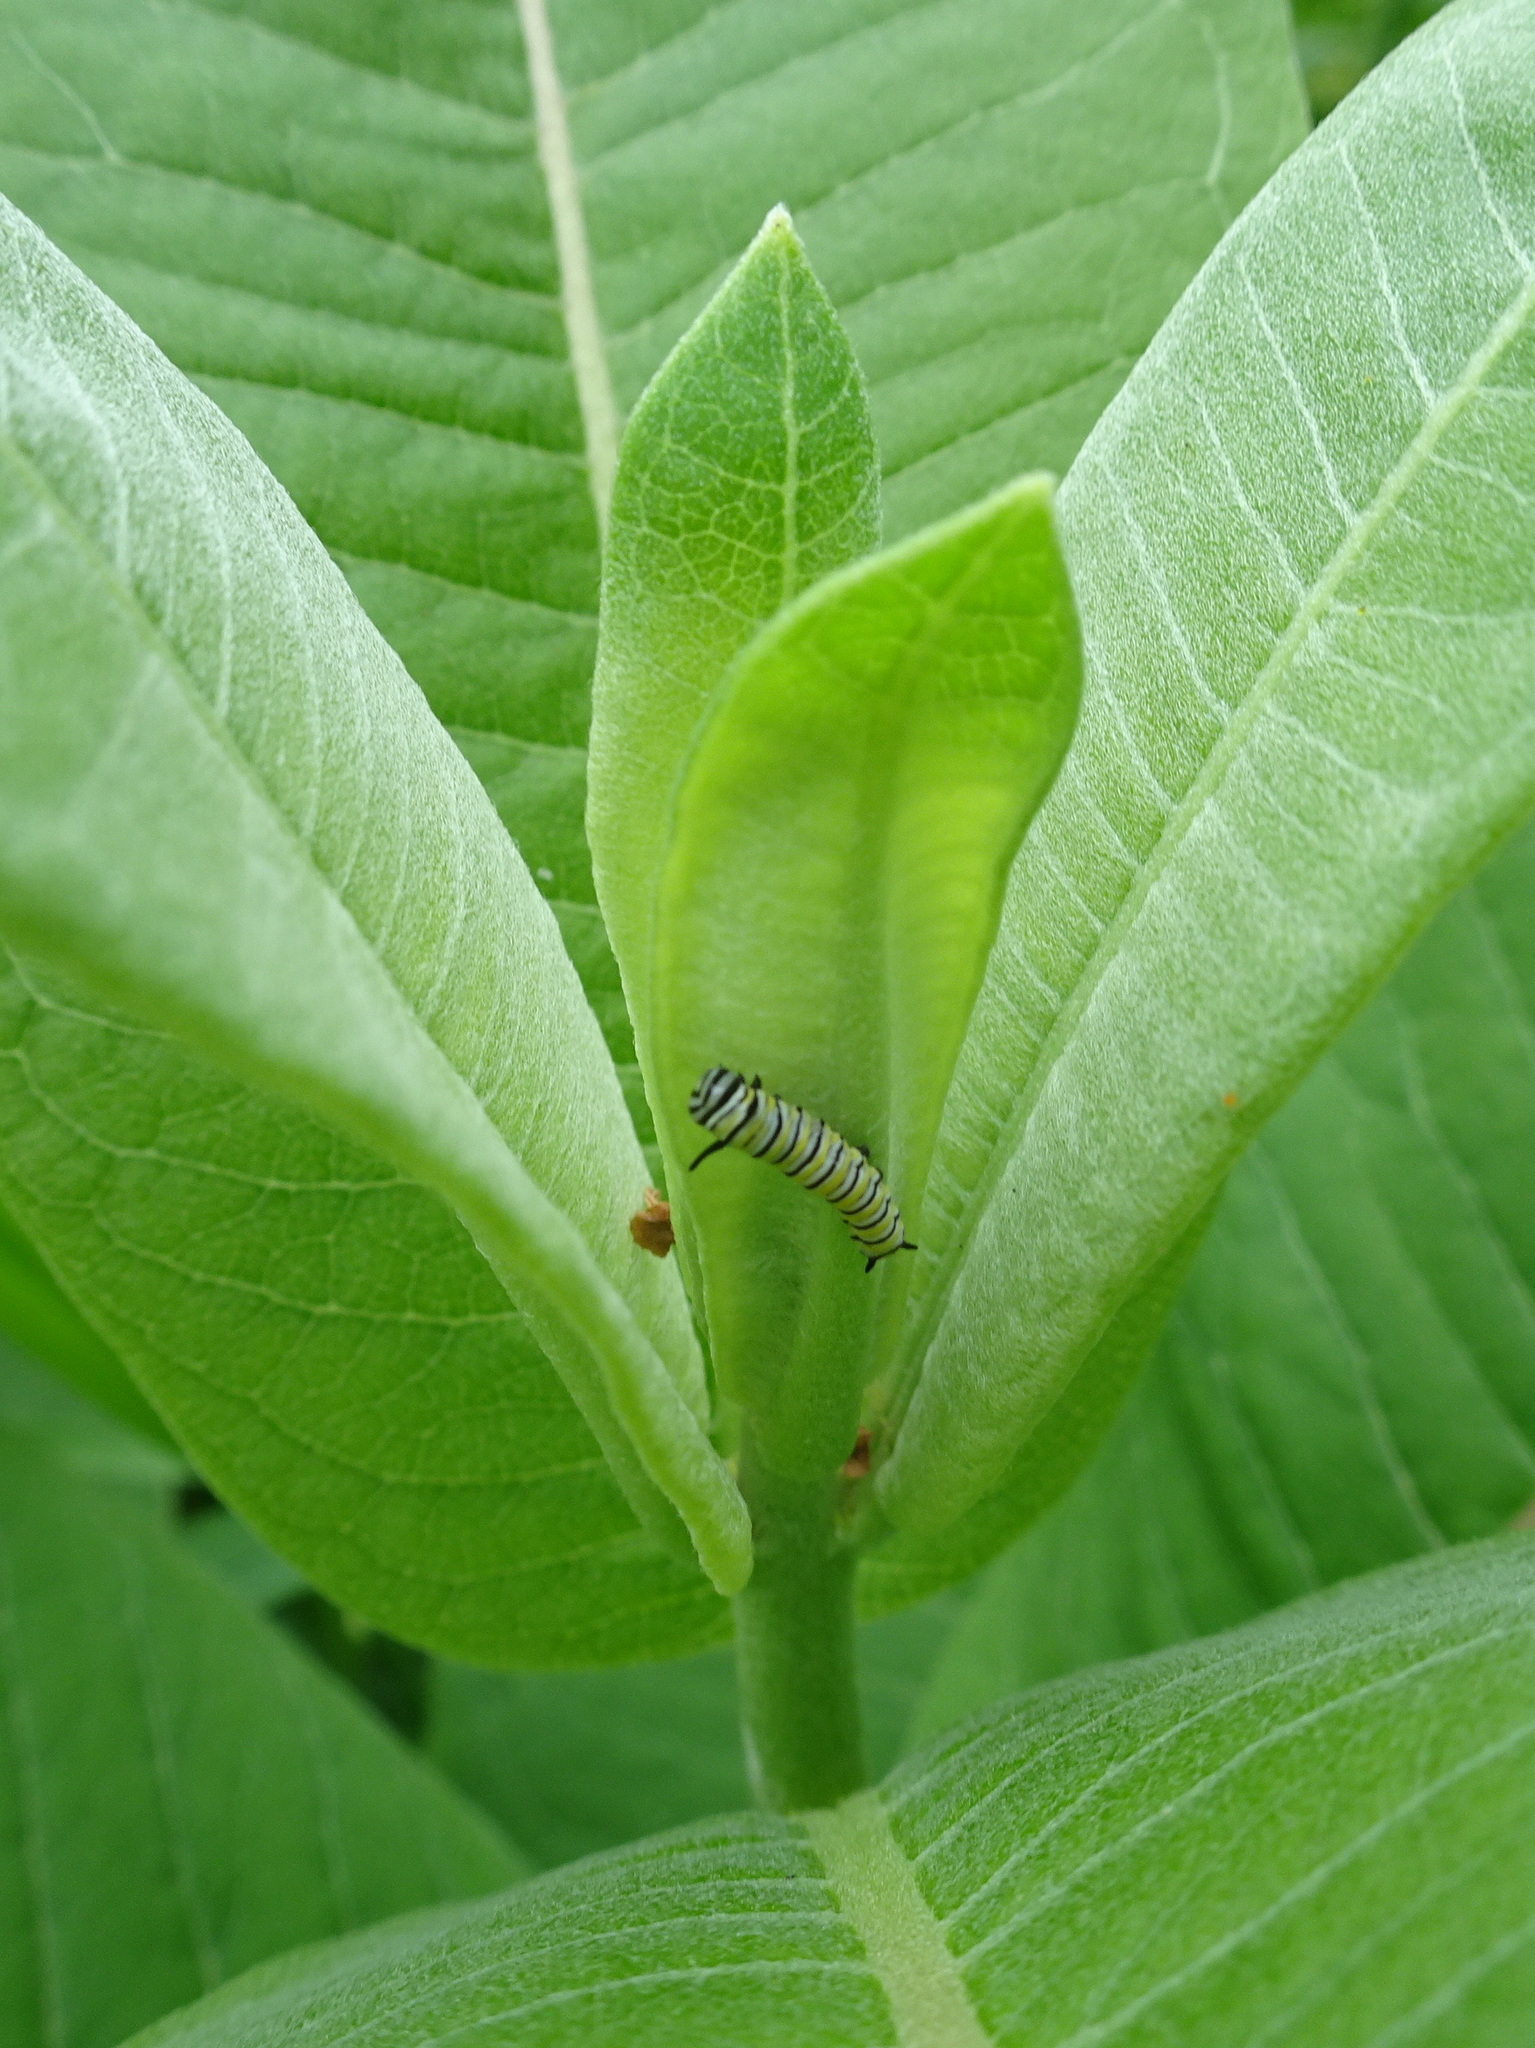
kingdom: Animalia
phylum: Arthropoda
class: Insecta
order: Lepidoptera
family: Nymphalidae
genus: Danaus
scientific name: Danaus plexippus
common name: Monarch
